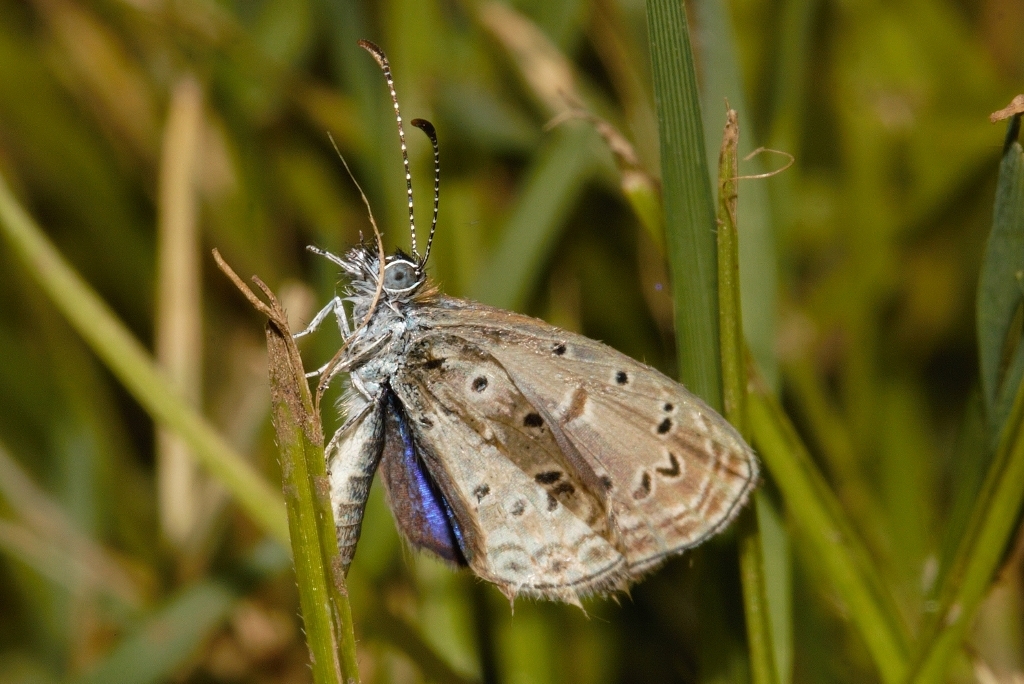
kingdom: Animalia
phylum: Arthropoda
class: Insecta
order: Lepidoptera
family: Lycaenidae
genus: Zizula
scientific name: Zizula hylax
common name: Gaika blue
